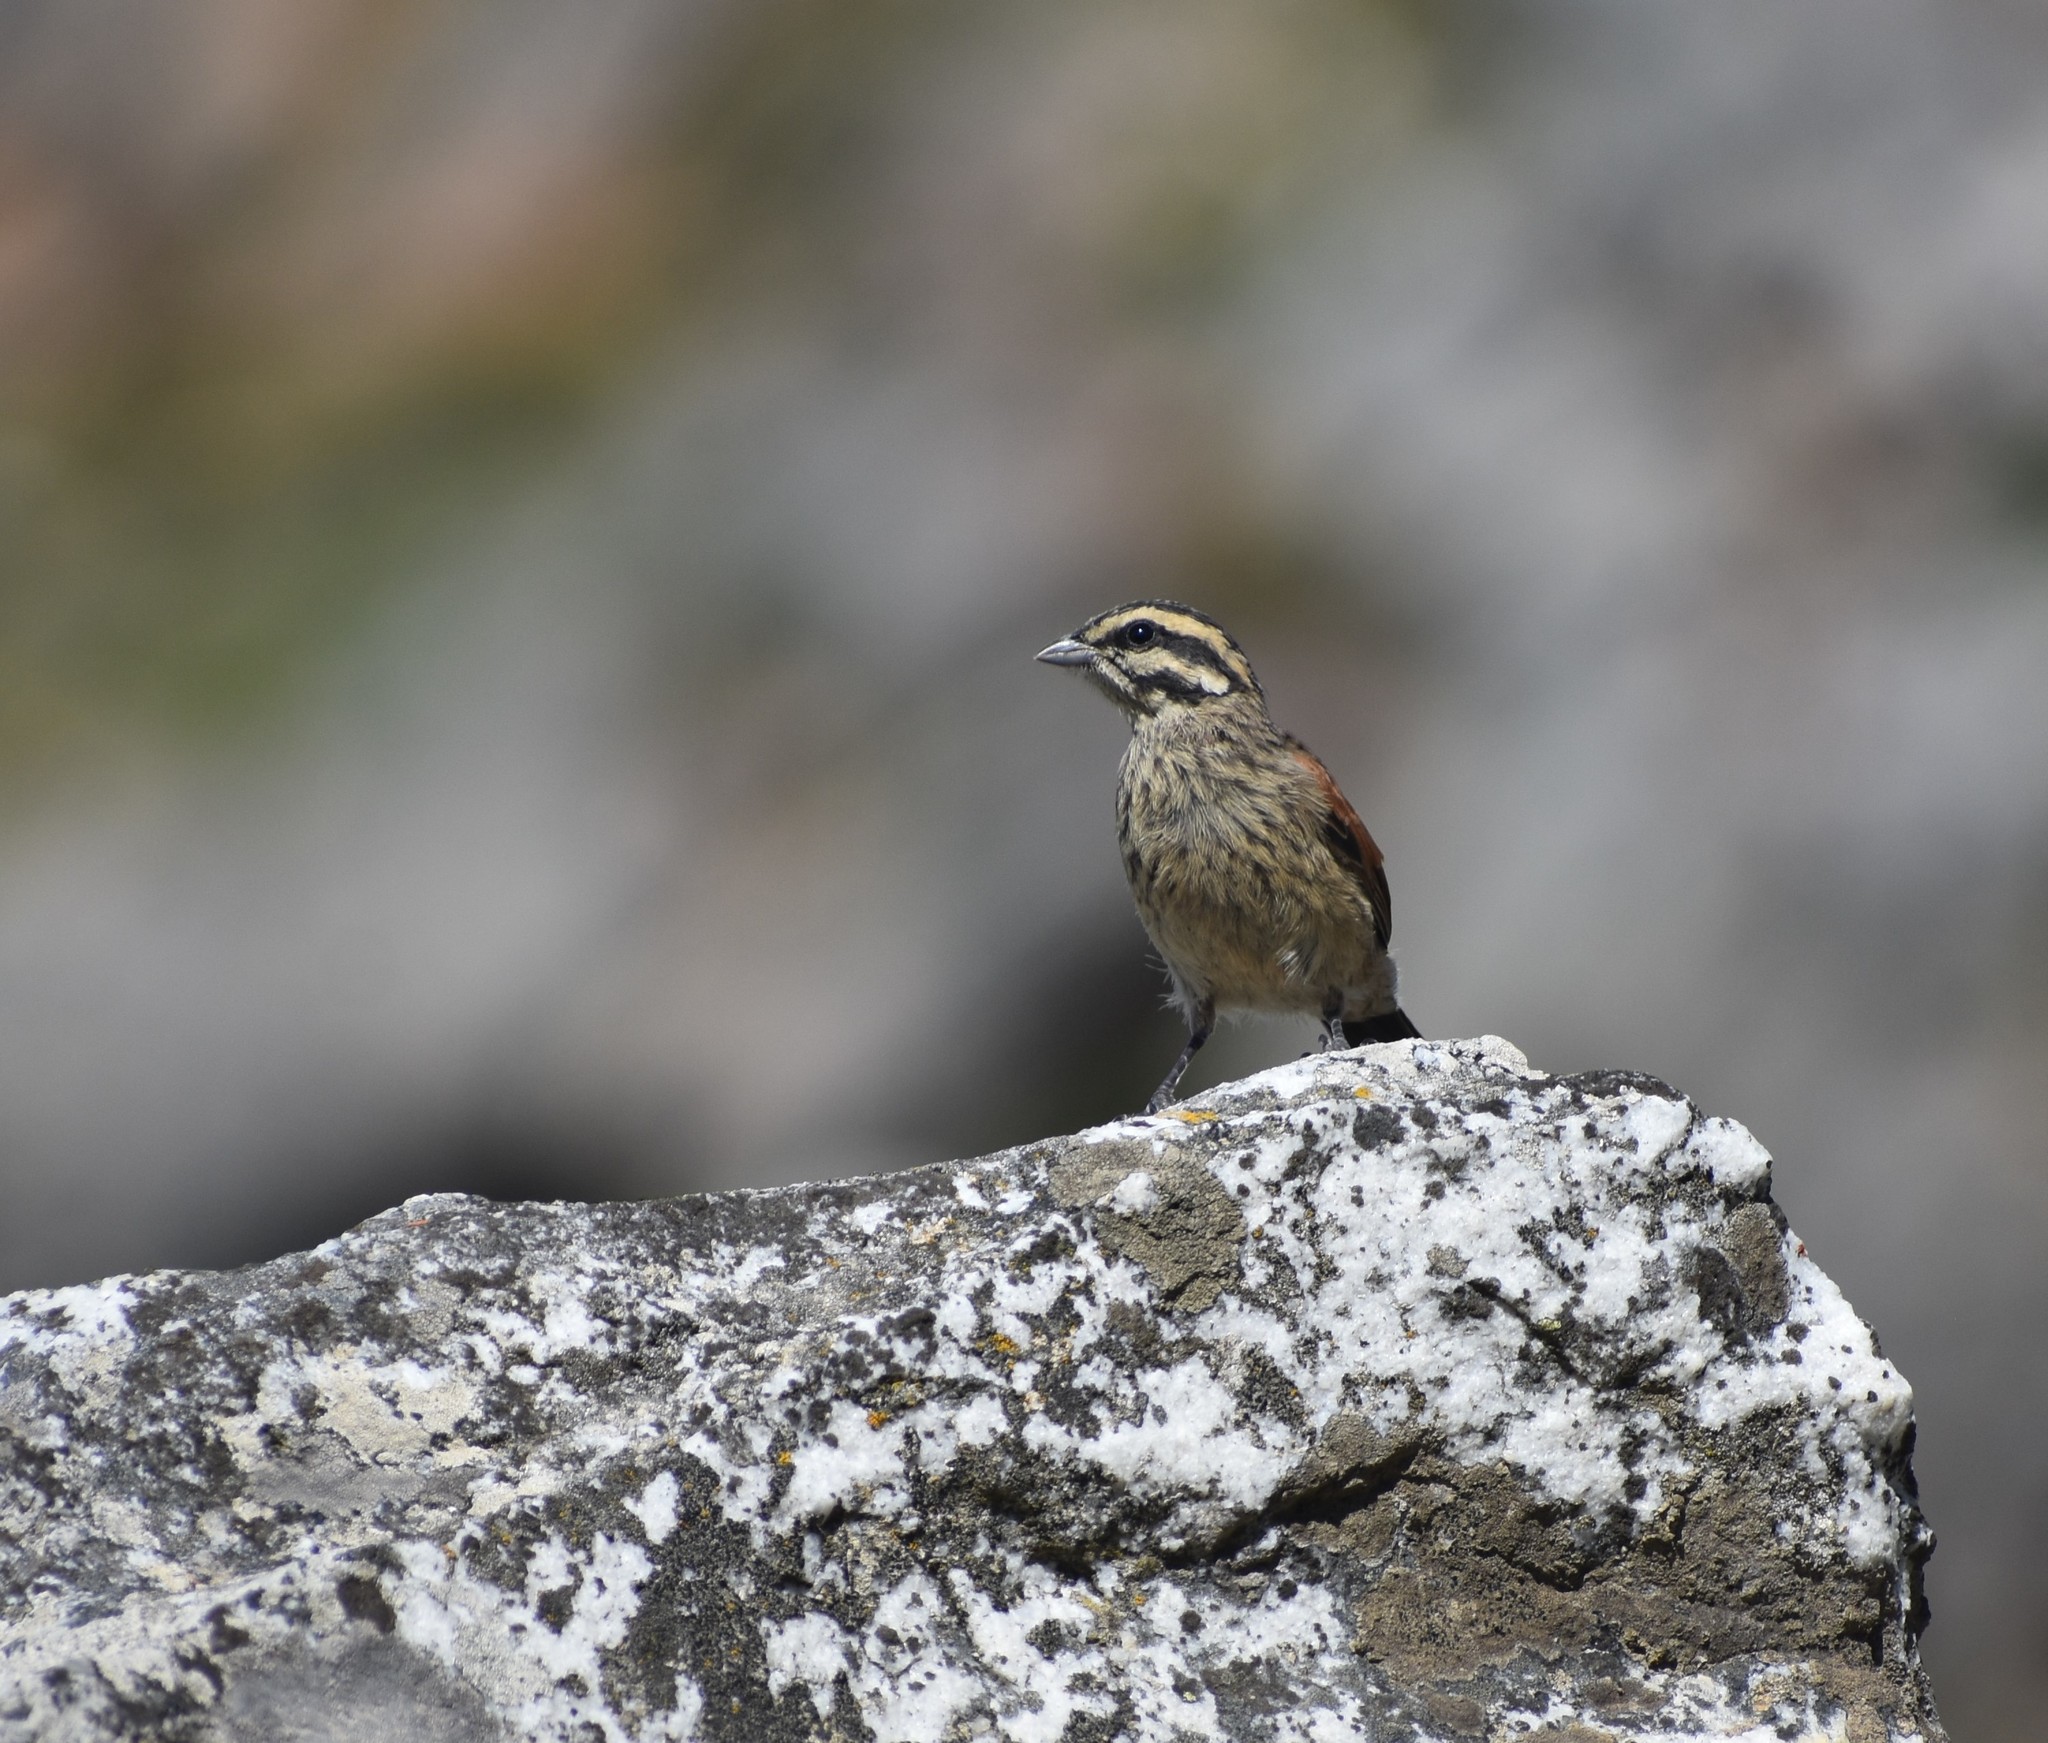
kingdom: Animalia
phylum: Chordata
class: Aves
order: Passeriformes
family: Emberizidae
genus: Emberiza
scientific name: Emberiza capensis
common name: Cape bunting
